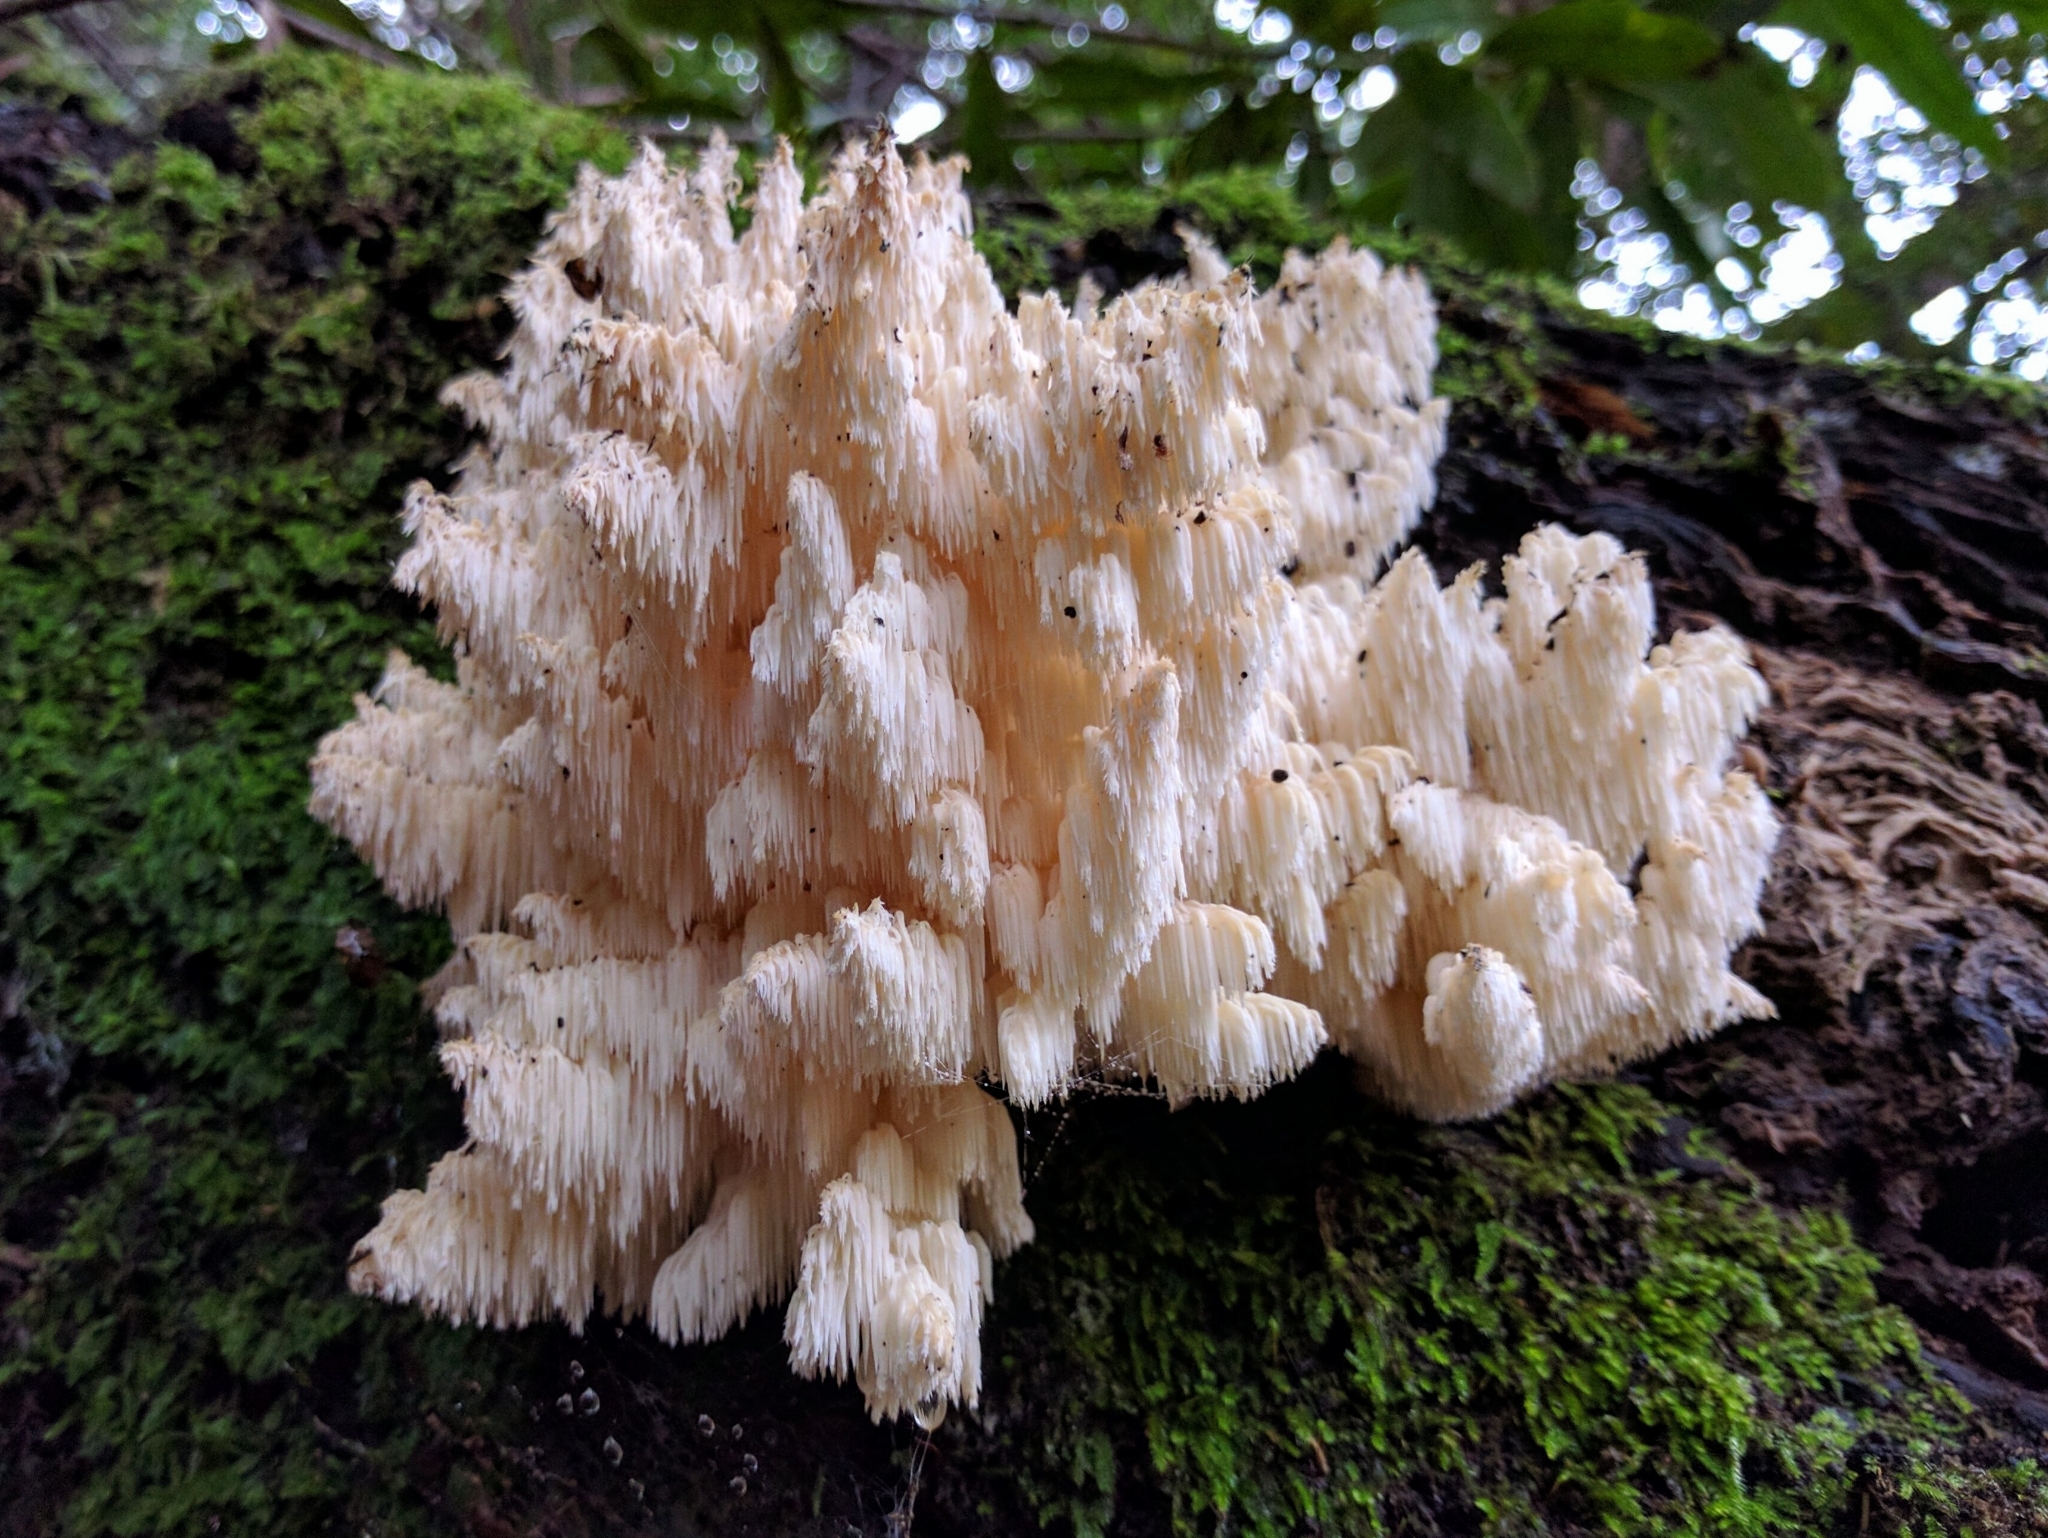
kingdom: Fungi
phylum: Basidiomycota
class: Agaricomycetes
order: Russulales
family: Hericiaceae
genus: Hericium
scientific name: Hericium coralloides
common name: Coral tooth
